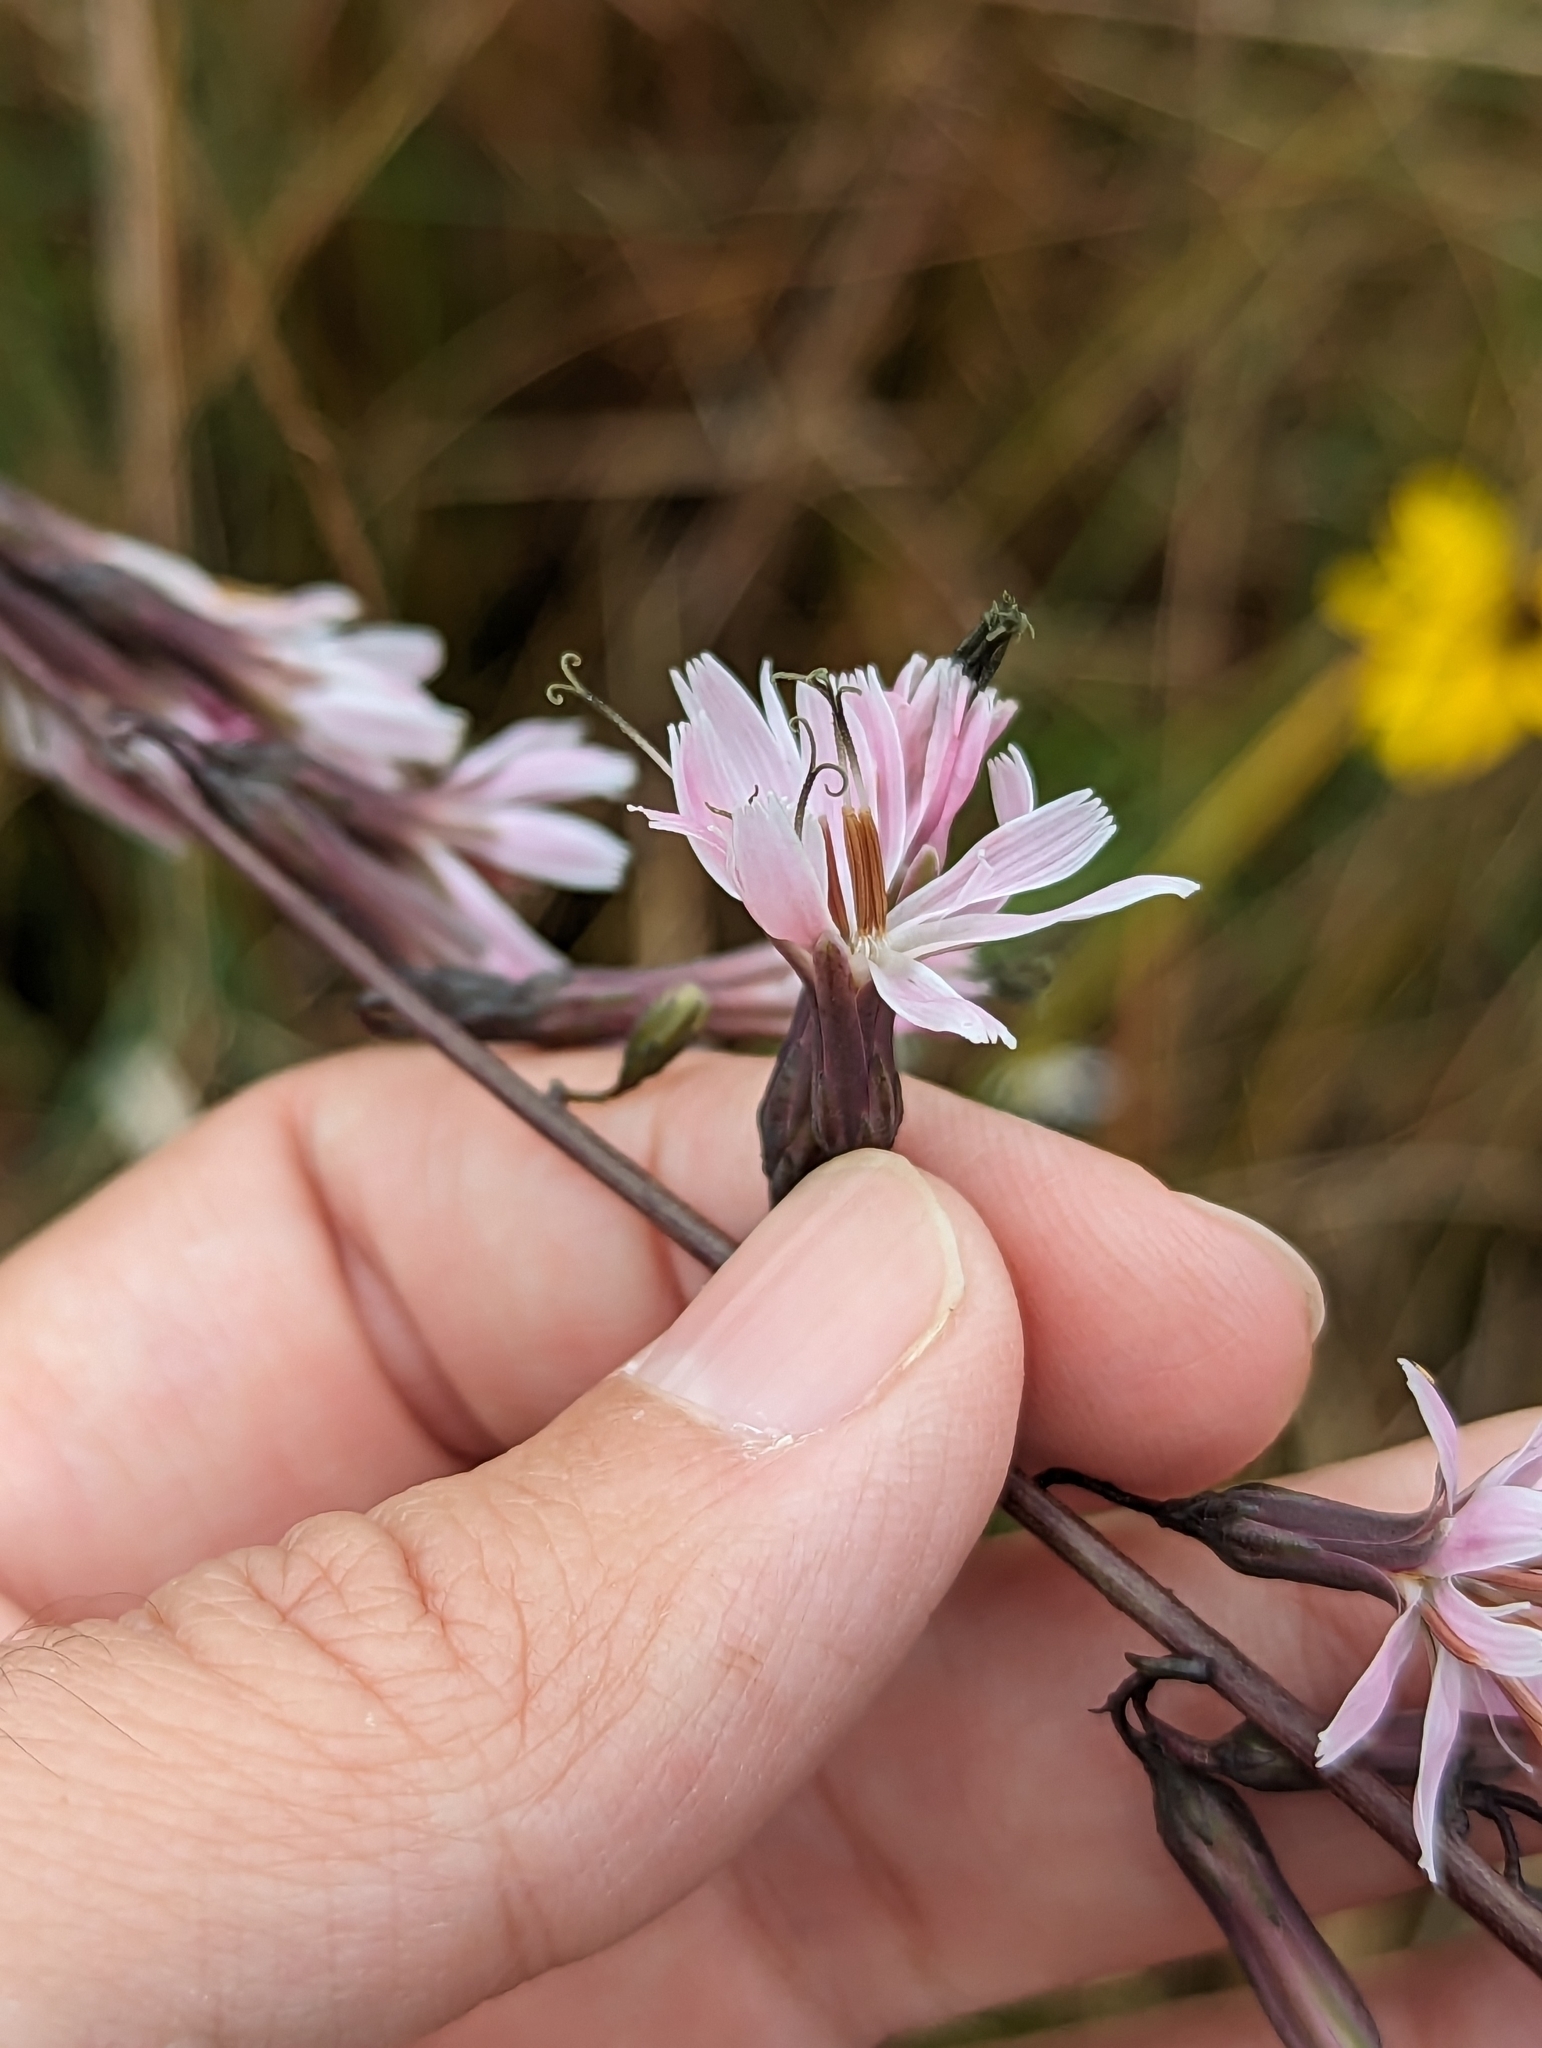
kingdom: Plantae
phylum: Tracheophyta
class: Magnoliopsida
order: Asterales
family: Asteraceae
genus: Nabalus
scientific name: Nabalus autumnalis
